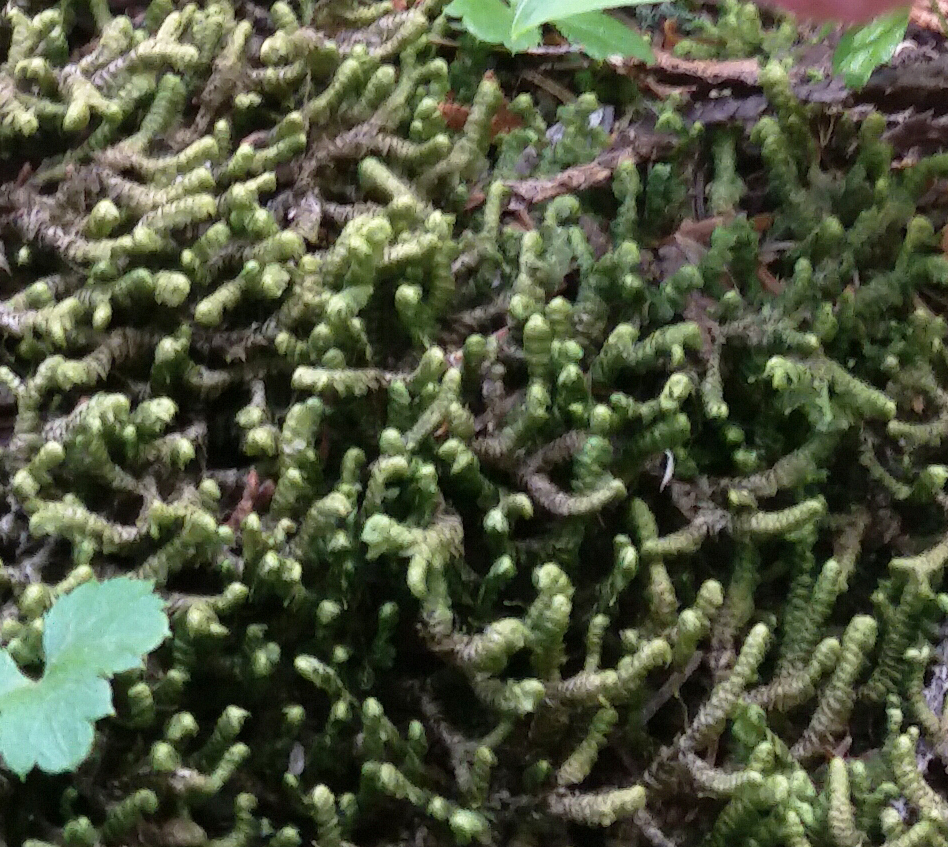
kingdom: Plantae
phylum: Marchantiophyta
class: Jungermanniopsida
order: Jungermanniales
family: Lepidoziaceae
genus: Bazzania
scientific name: Bazzania trilobata
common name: Three-lobed whipwort
